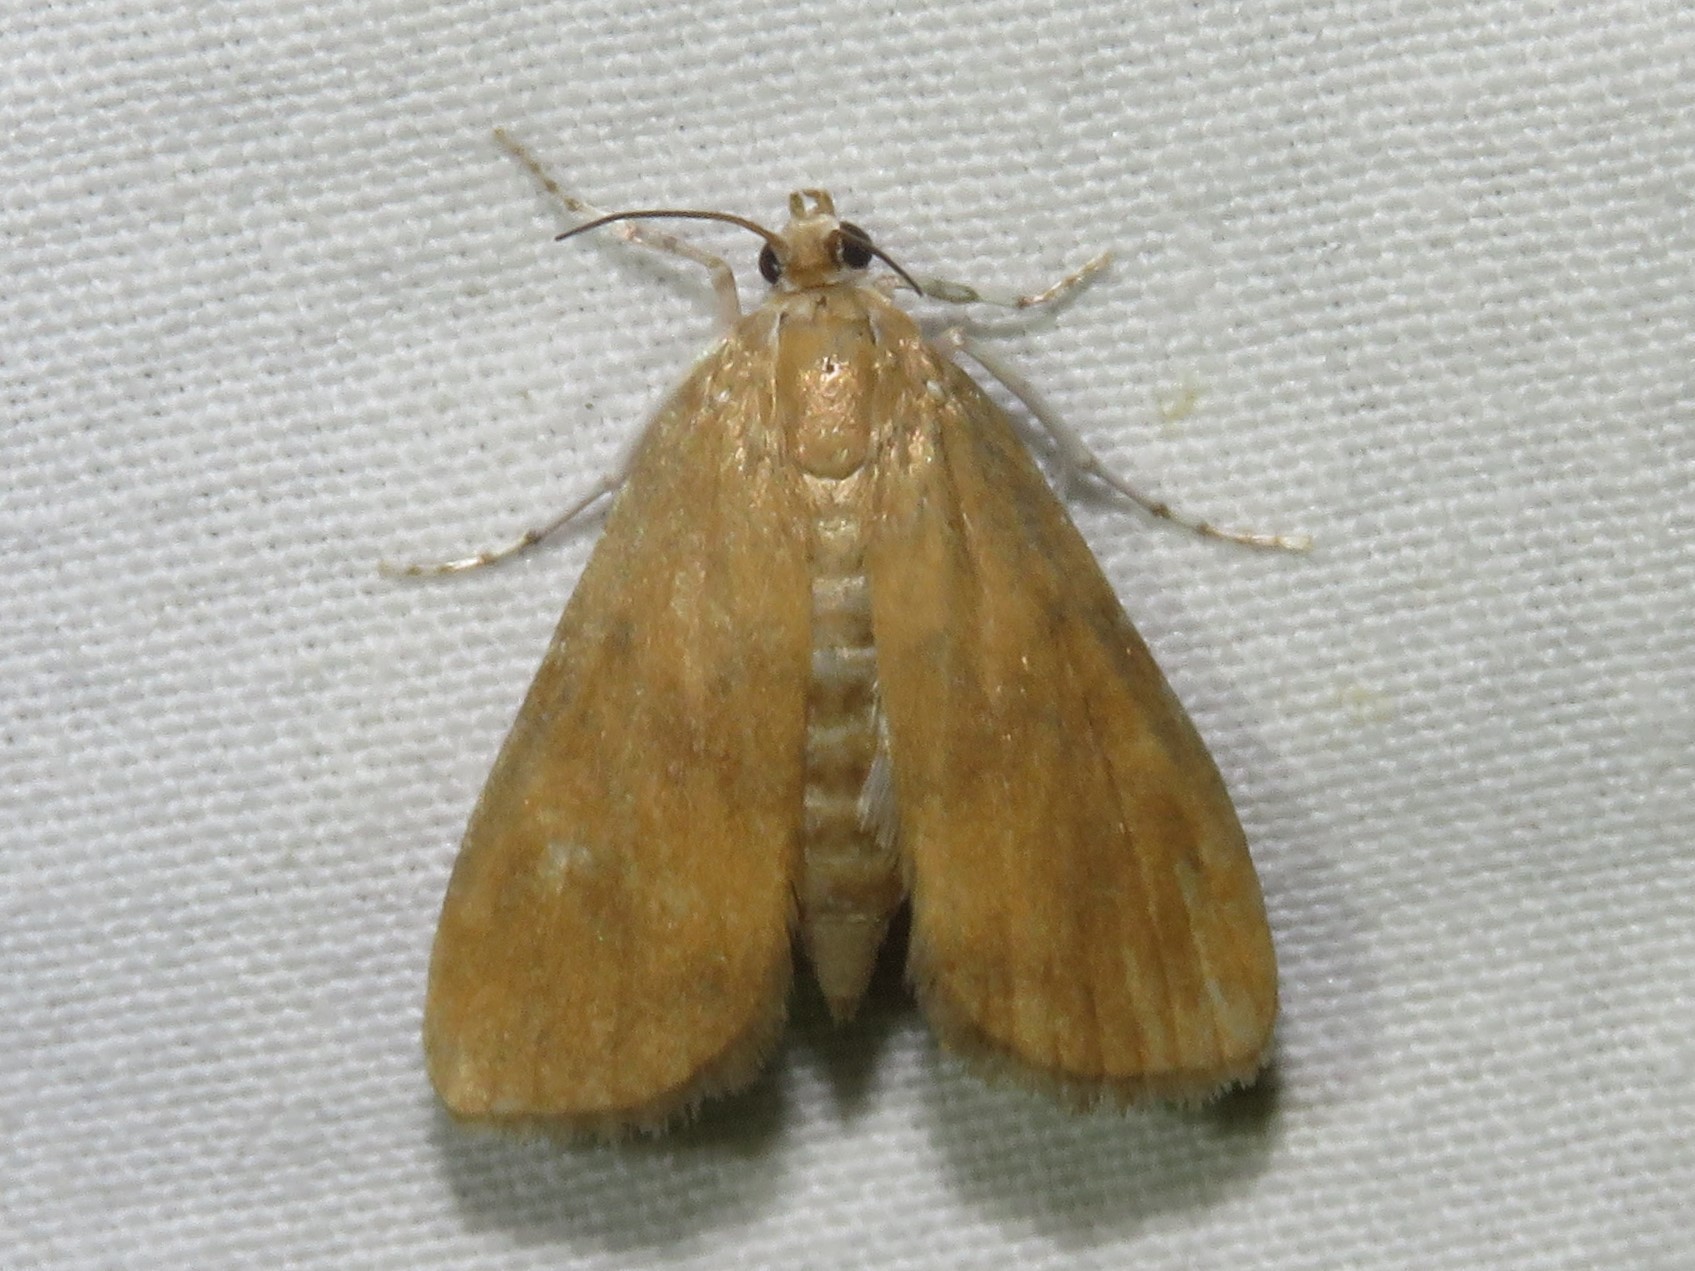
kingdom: Animalia
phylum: Arthropoda
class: Insecta
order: Lepidoptera
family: Crambidae
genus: Elophila
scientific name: Elophila gyralis
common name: Waterlily borer moth
